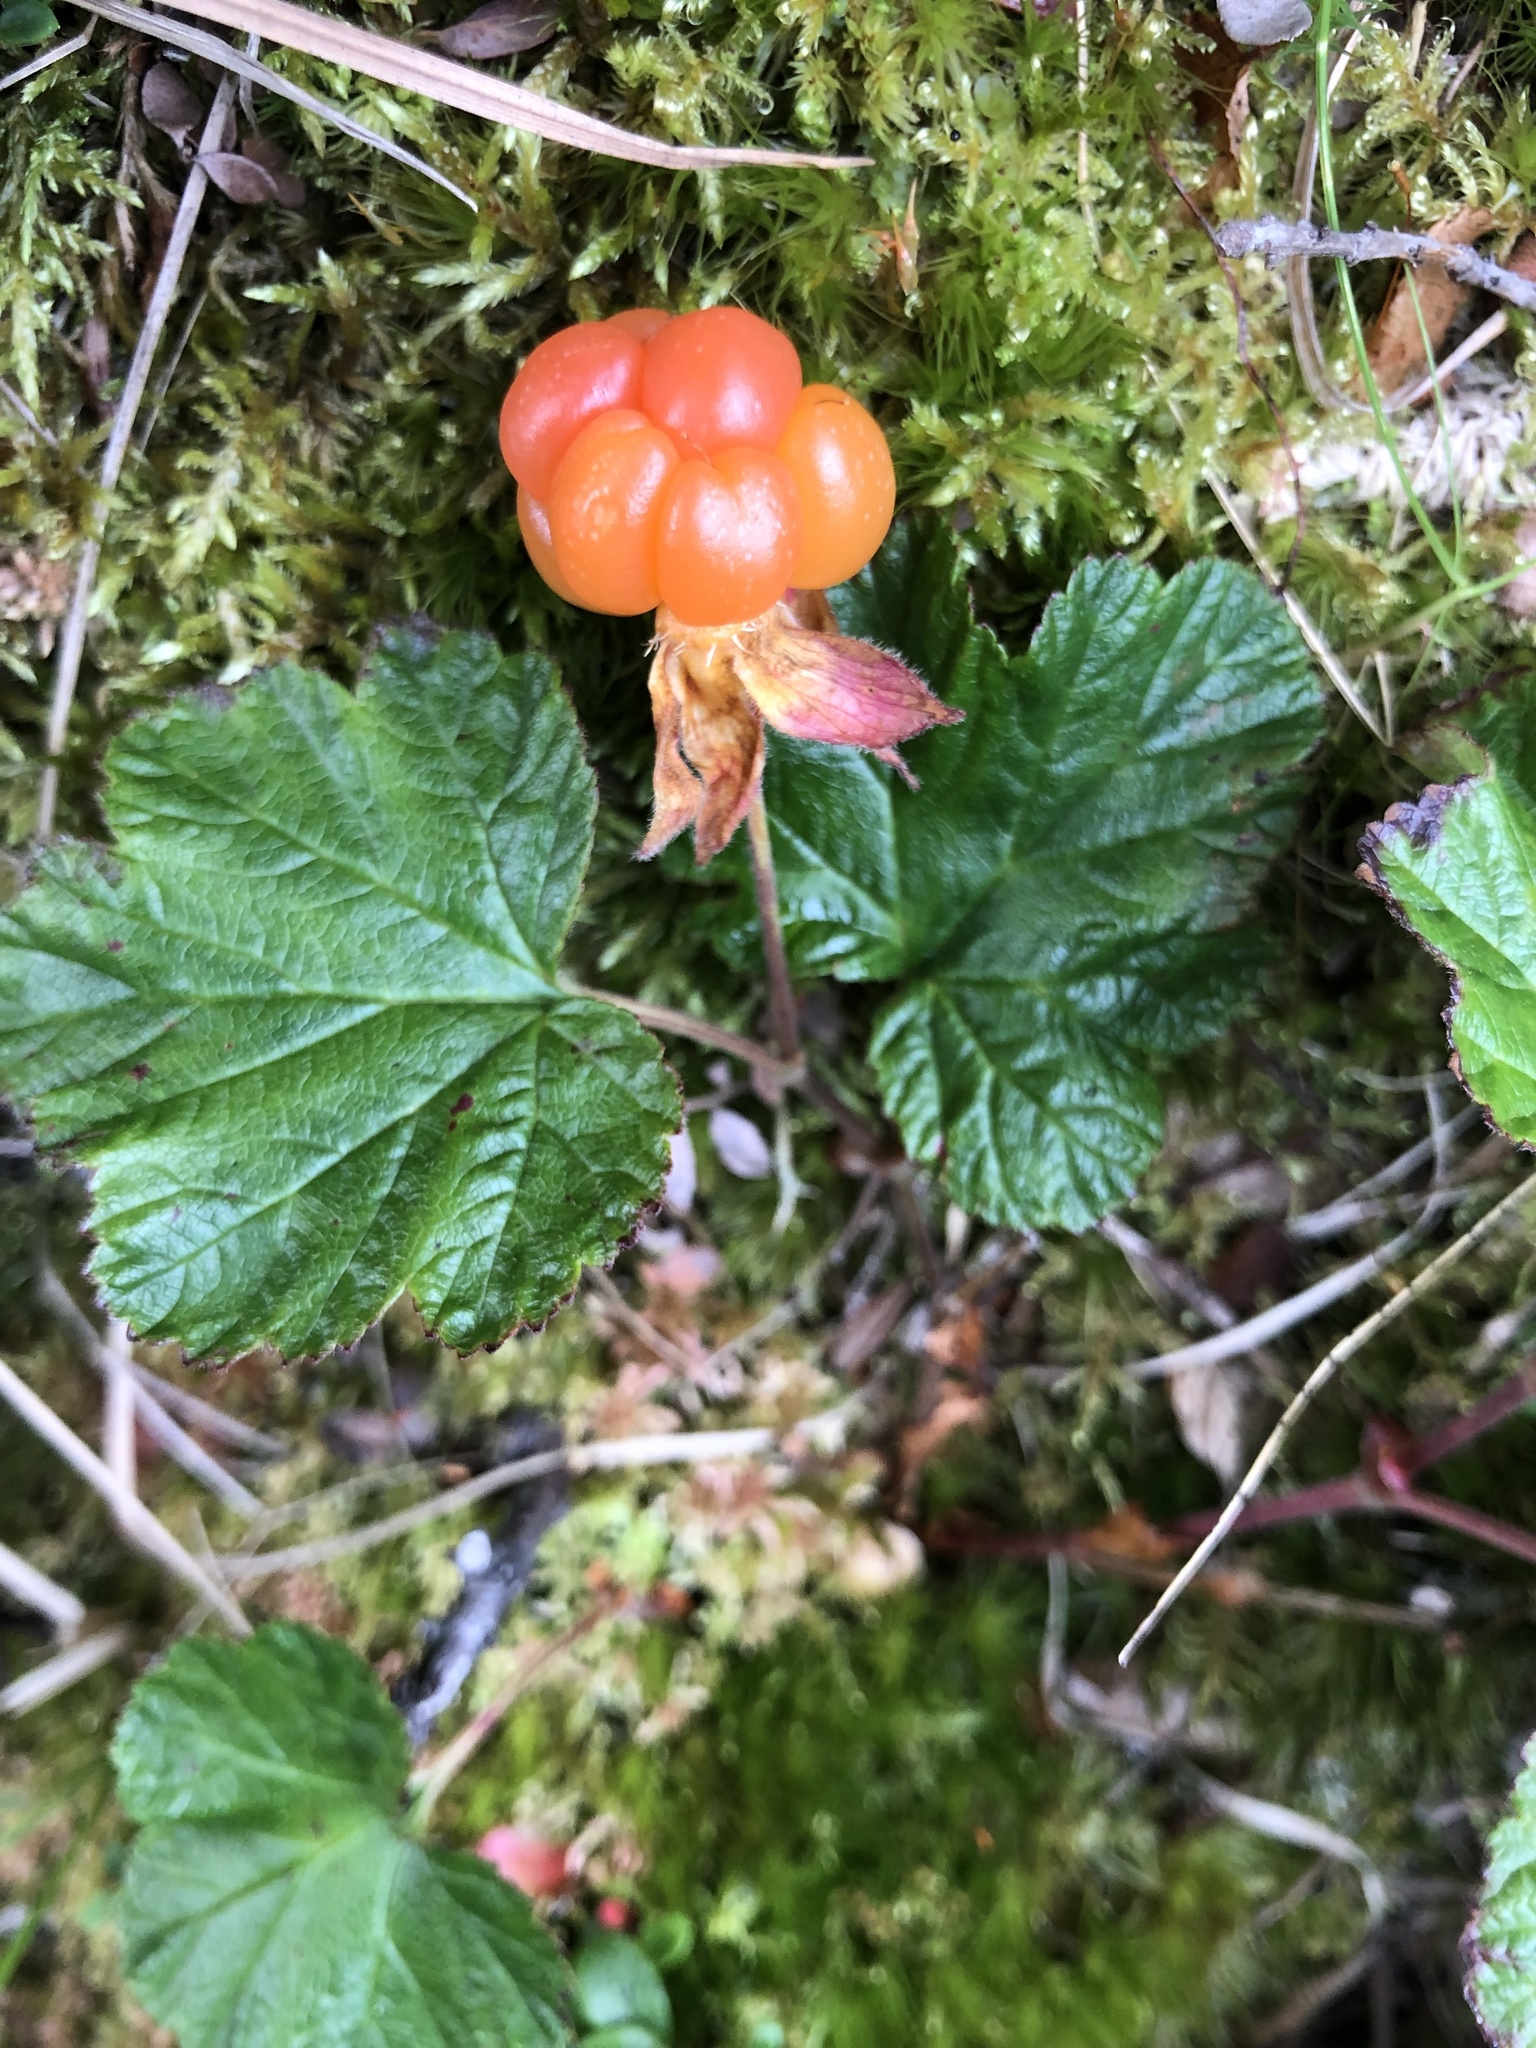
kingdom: Plantae
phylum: Tracheophyta
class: Magnoliopsida
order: Rosales
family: Rosaceae
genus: Rubus
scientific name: Rubus chamaemorus
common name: Cloudberry
